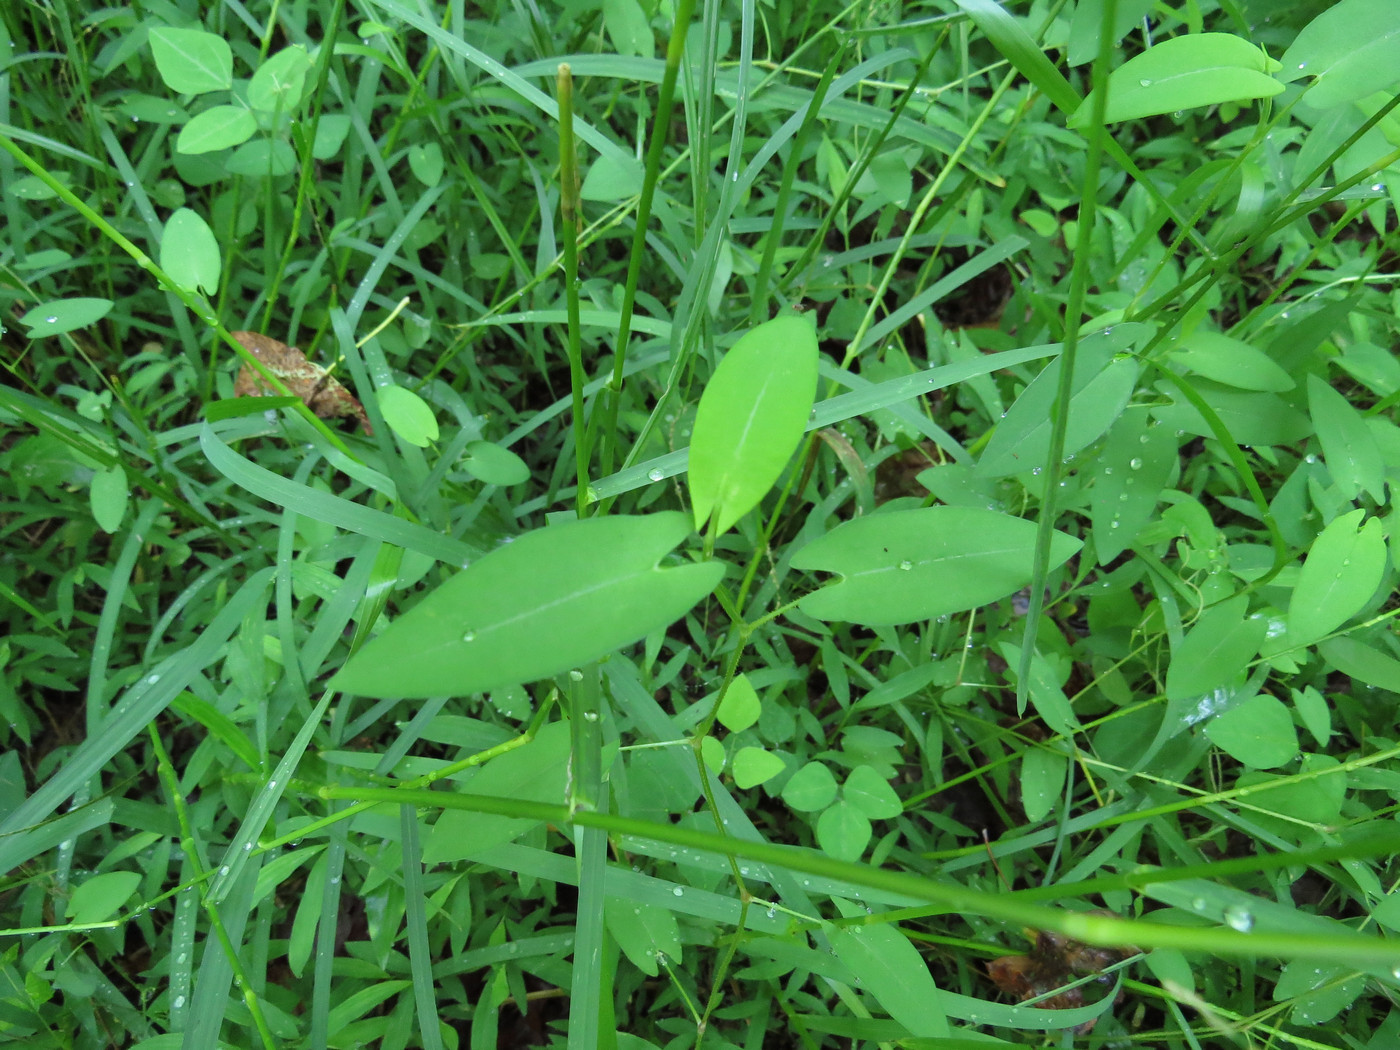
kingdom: Plantae
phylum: Tracheophyta
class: Magnoliopsida
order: Caryophyllales
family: Polygonaceae
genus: Persicaria
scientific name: Persicaria sagittata
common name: American tearthumb
